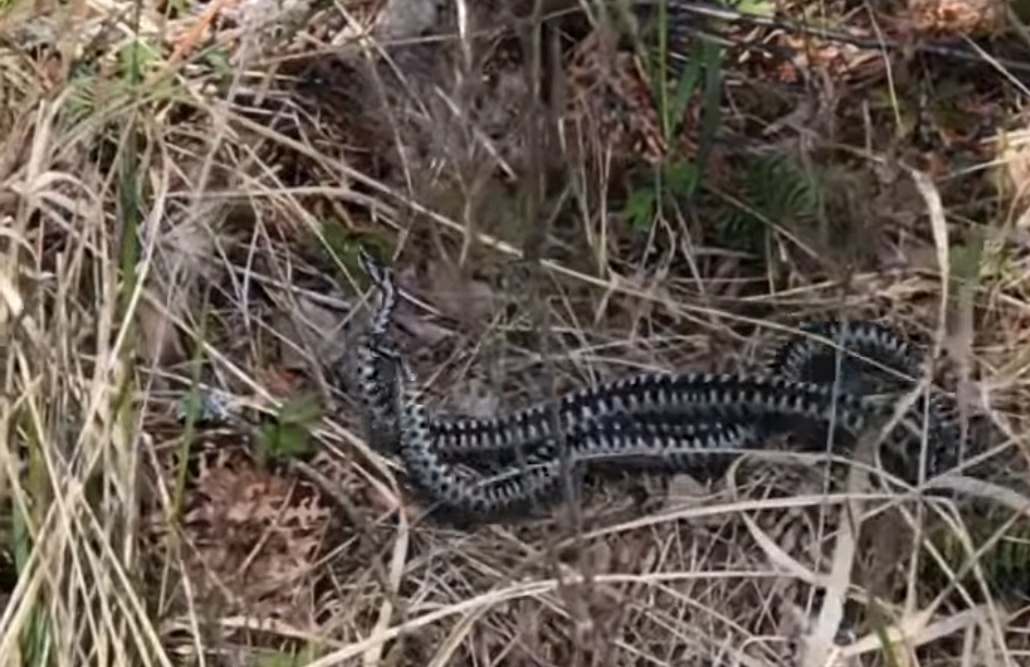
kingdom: Animalia
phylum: Chordata
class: Squamata
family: Viperidae
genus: Vipera
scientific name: Vipera berus
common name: Adder
